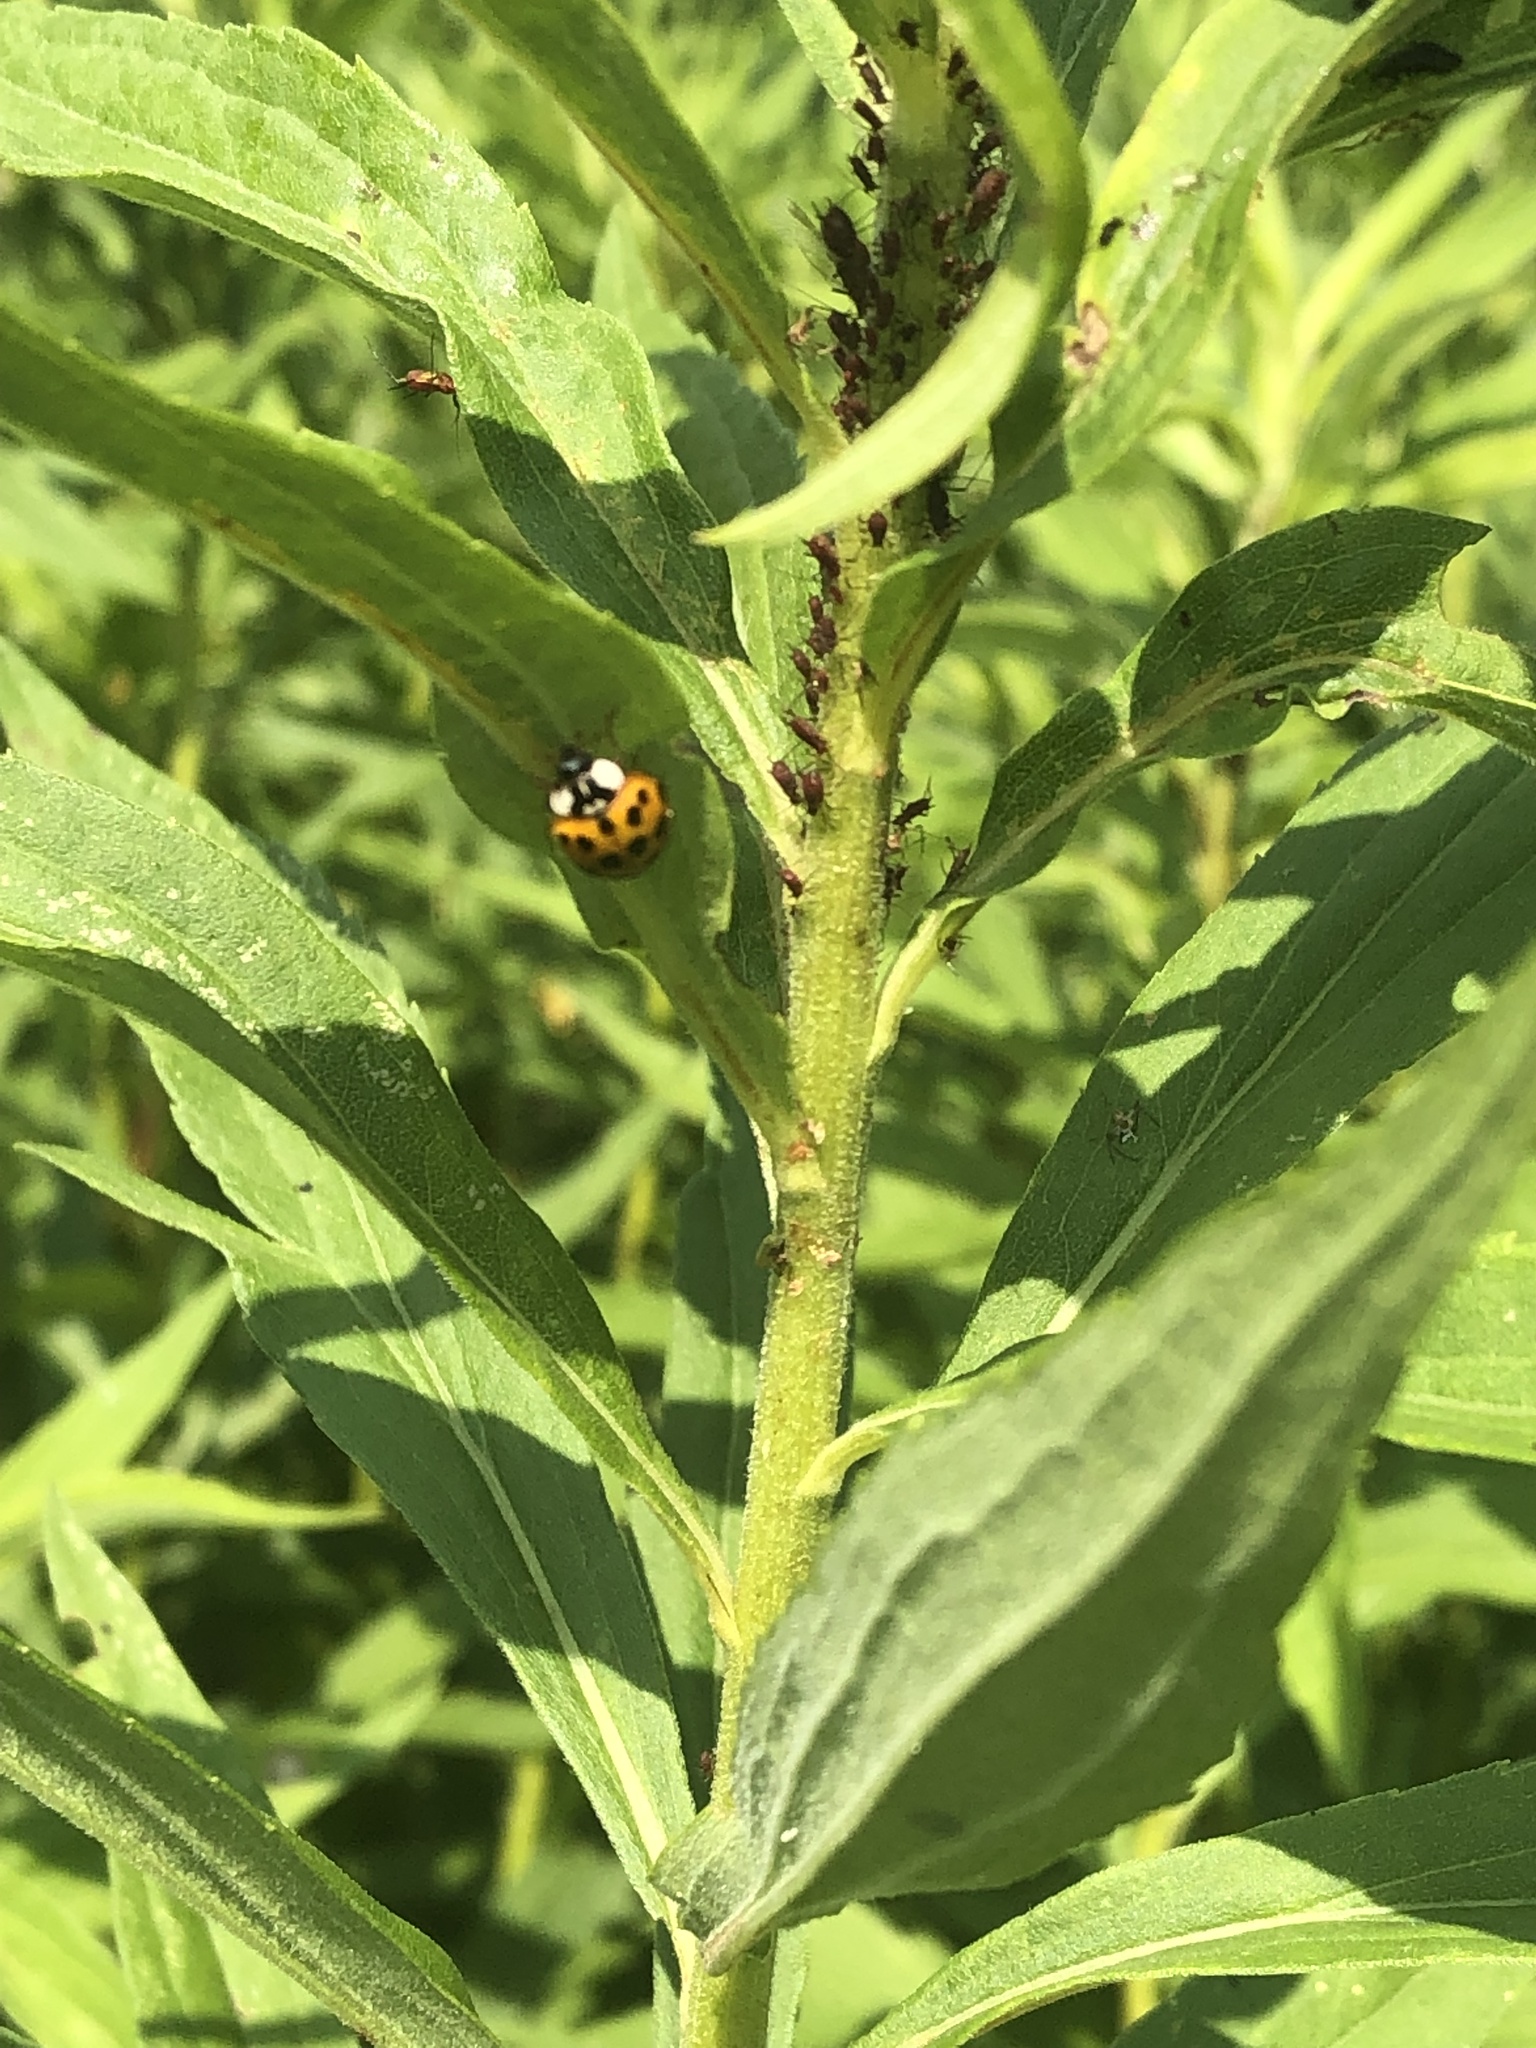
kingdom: Animalia
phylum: Arthropoda
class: Insecta
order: Coleoptera
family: Coccinellidae
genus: Harmonia
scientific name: Harmonia axyridis
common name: Harlequin ladybird
